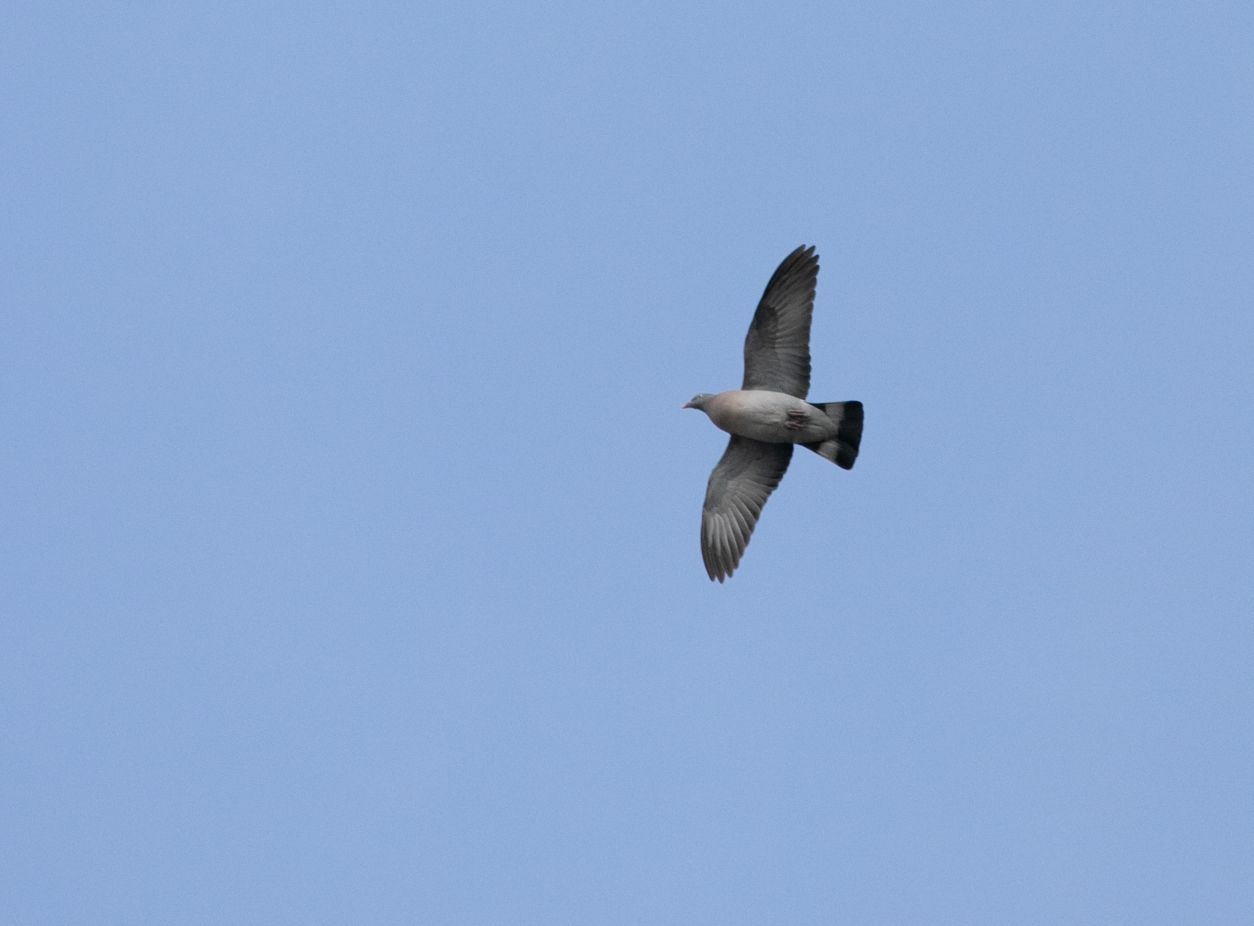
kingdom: Animalia
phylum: Chordata
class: Aves
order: Columbiformes
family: Columbidae
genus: Columba
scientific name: Columba palumbus
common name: Common wood pigeon
